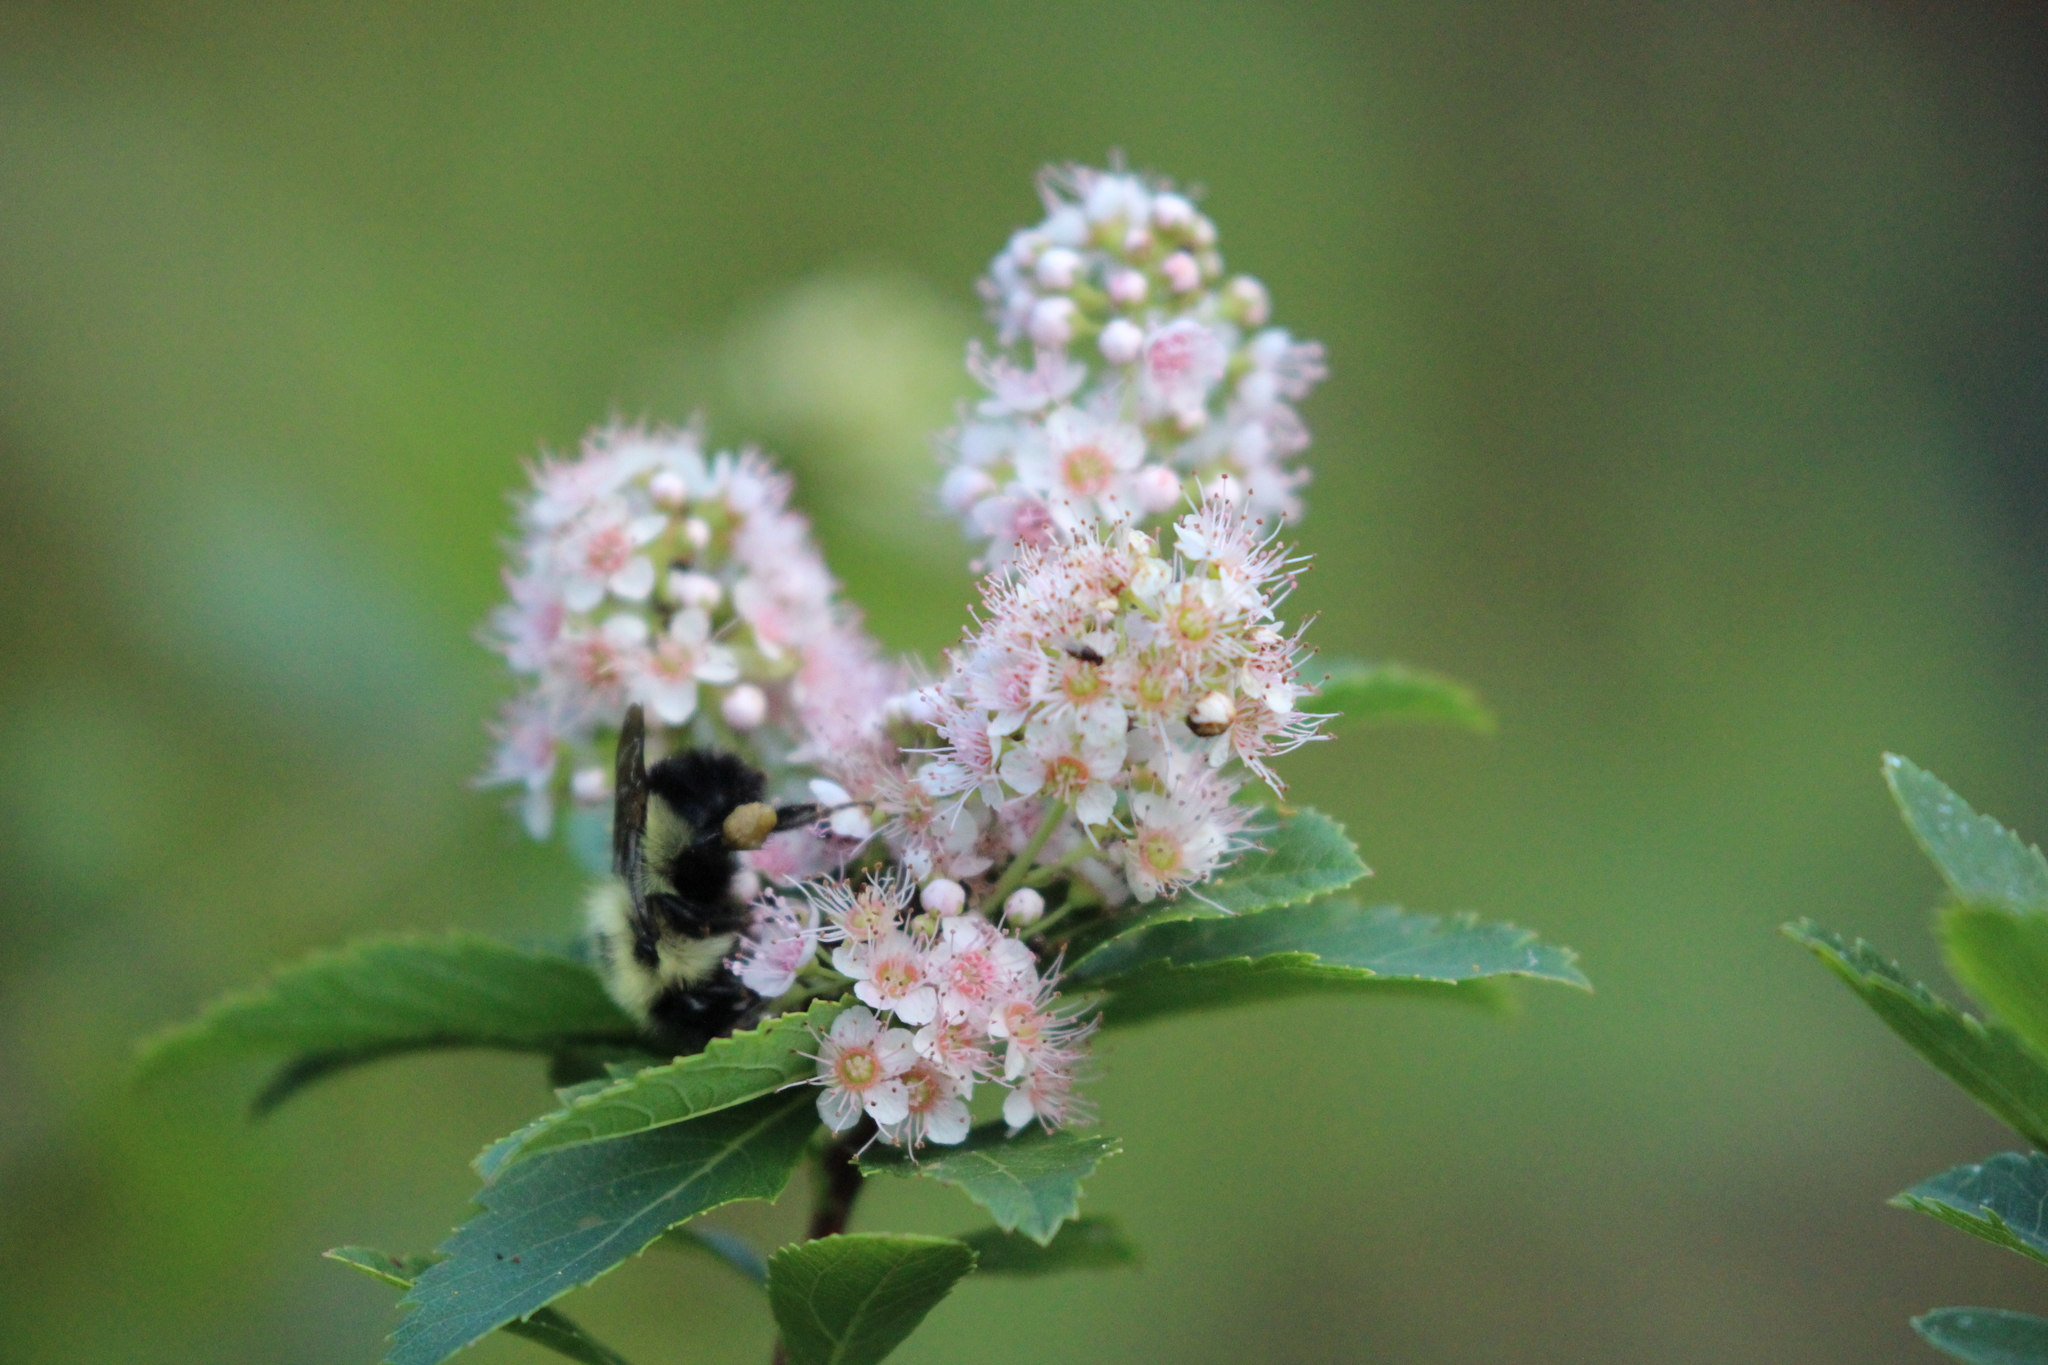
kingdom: Animalia
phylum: Arthropoda
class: Insecta
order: Hymenoptera
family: Apidae
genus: Pyrobombus
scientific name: Pyrobombus
